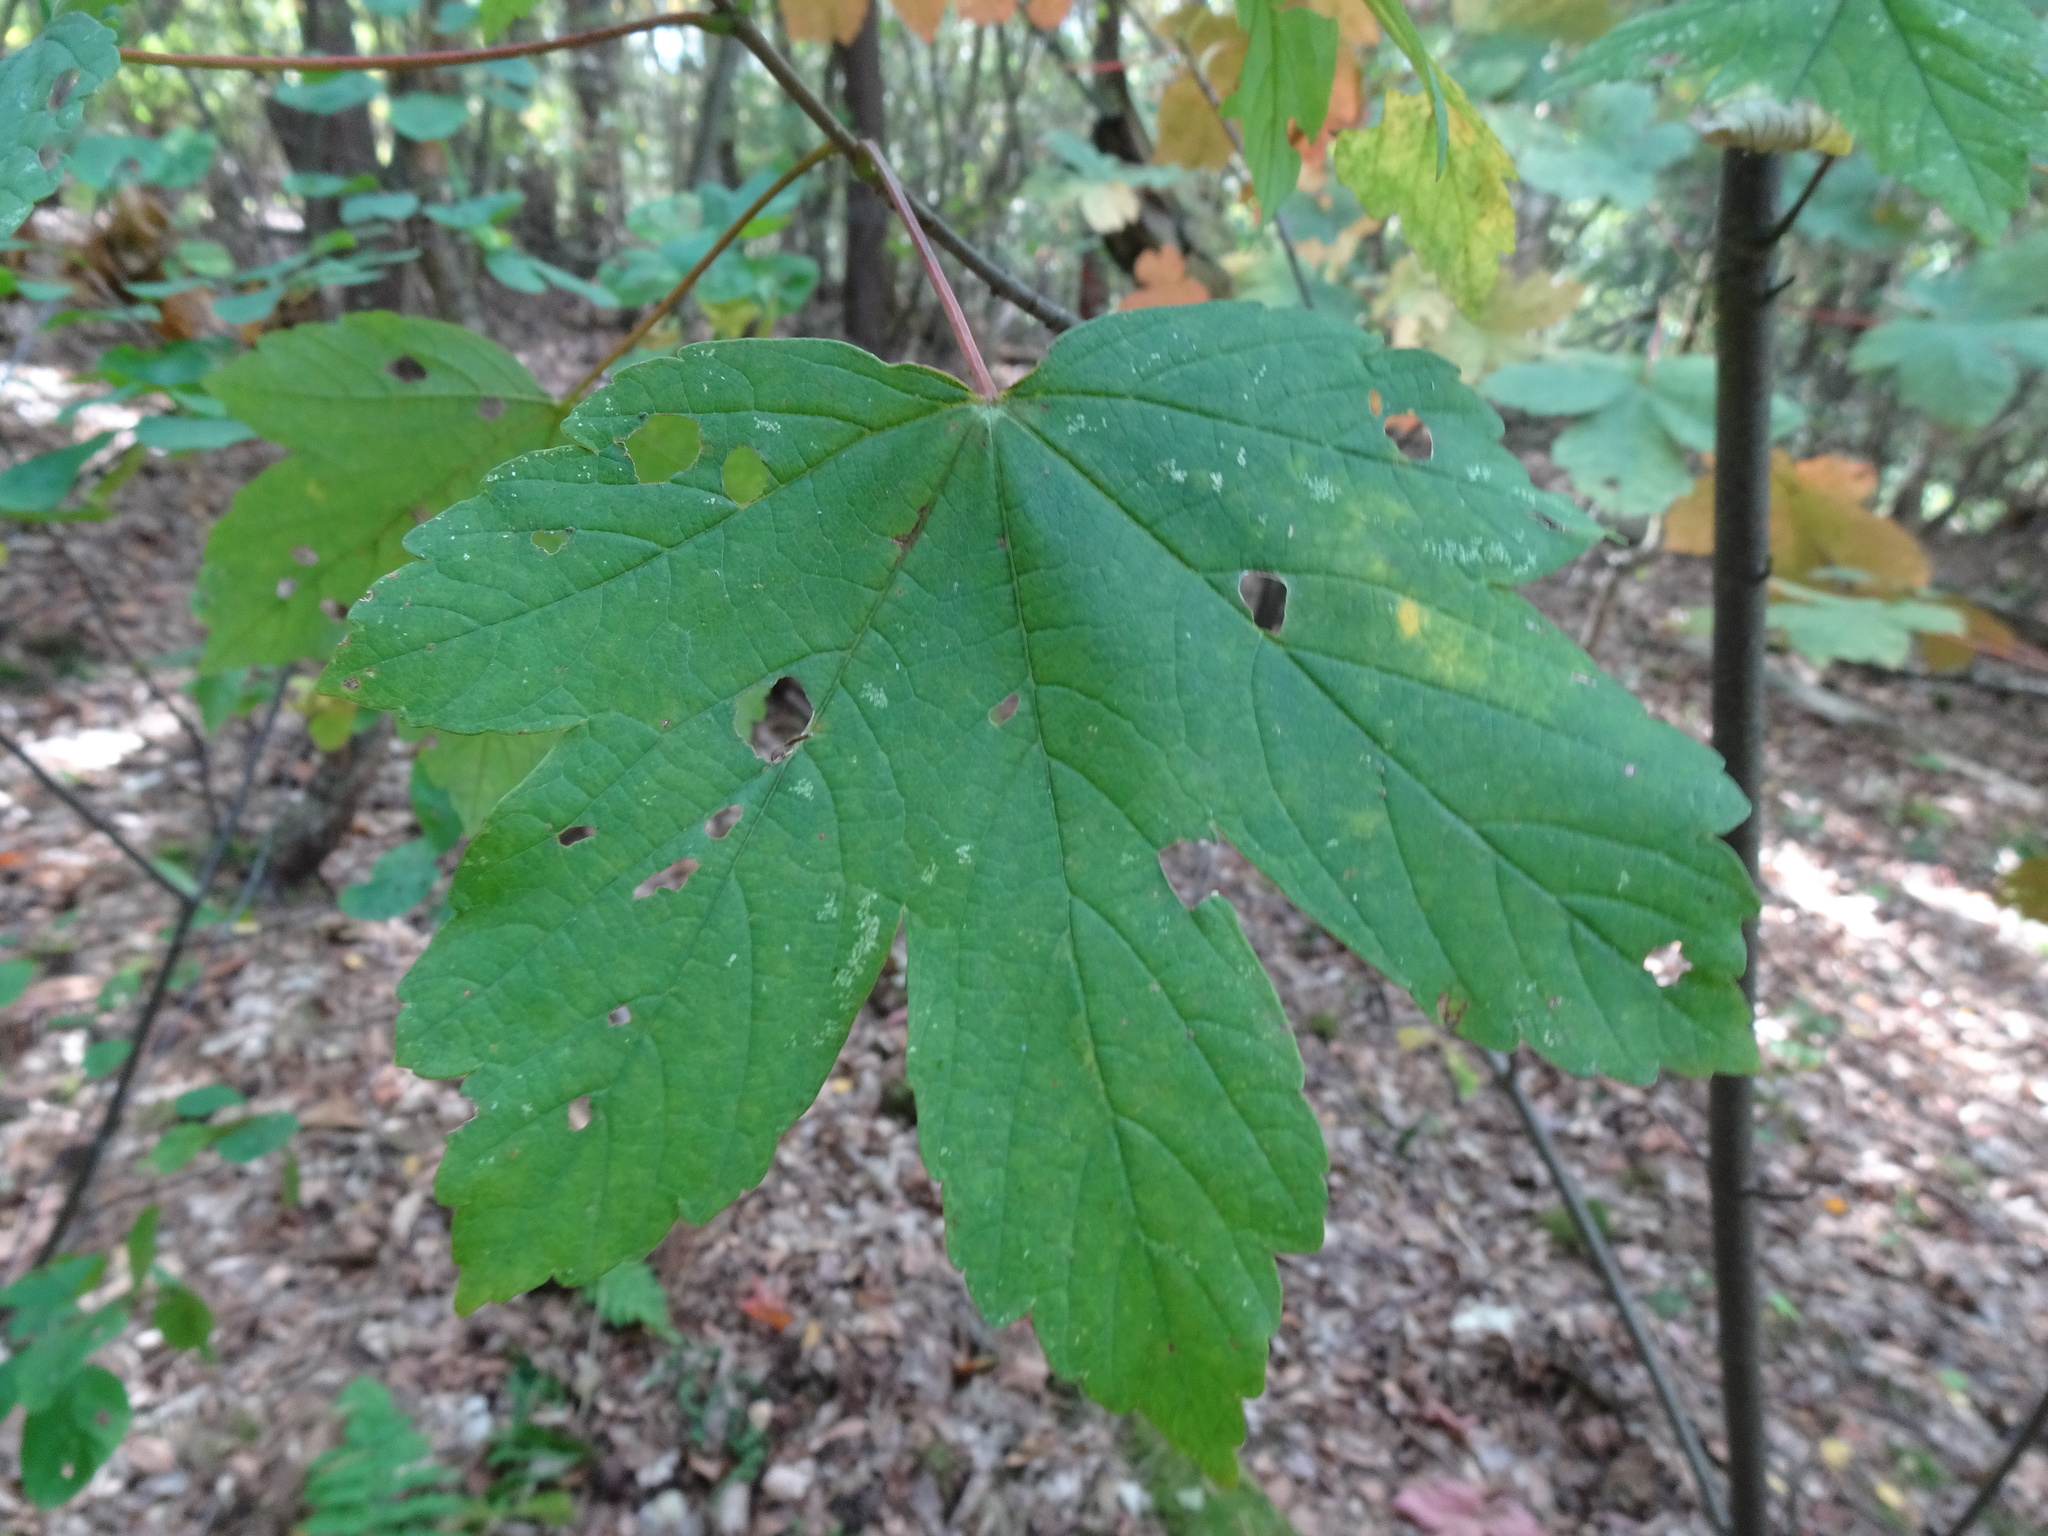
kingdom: Plantae
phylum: Tracheophyta
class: Magnoliopsida
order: Sapindales
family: Sapindaceae
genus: Acer
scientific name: Acer pseudoplatanus
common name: Sycamore
